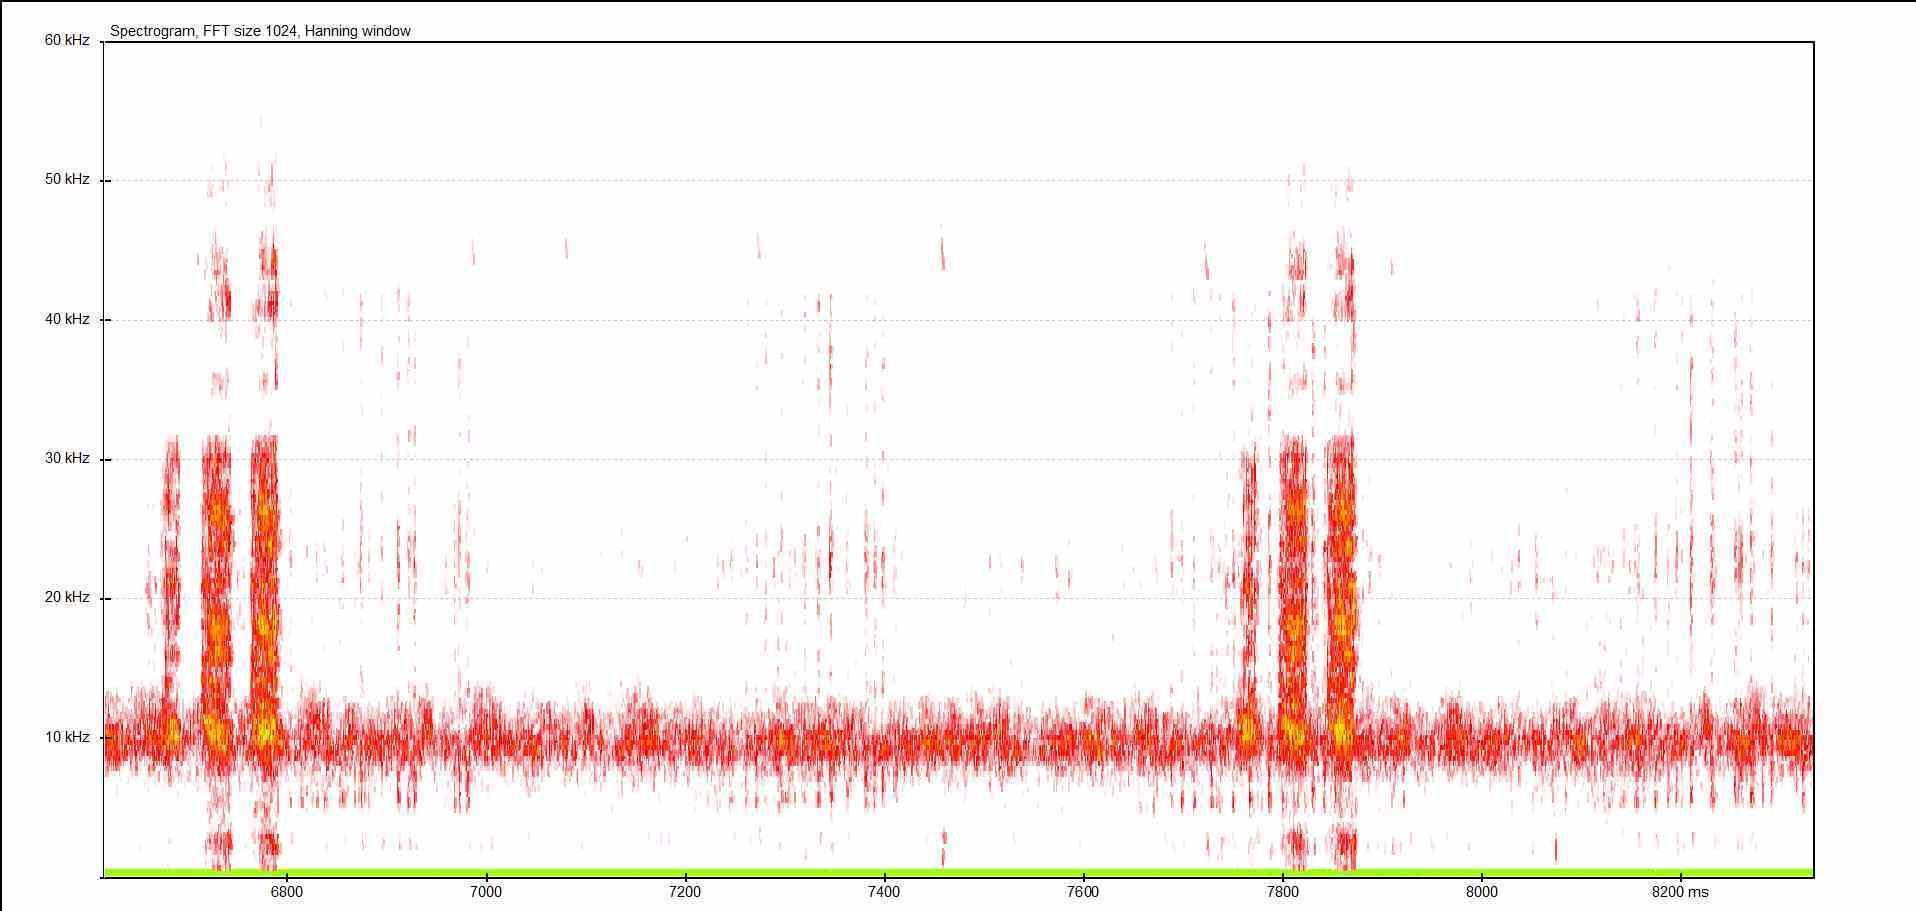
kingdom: Animalia
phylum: Arthropoda
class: Insecta
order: Orthoptera
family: Tettigoniidae
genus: Pholidoptera
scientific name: Pholidoptera griseoaptera
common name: Dark bush-cricket
